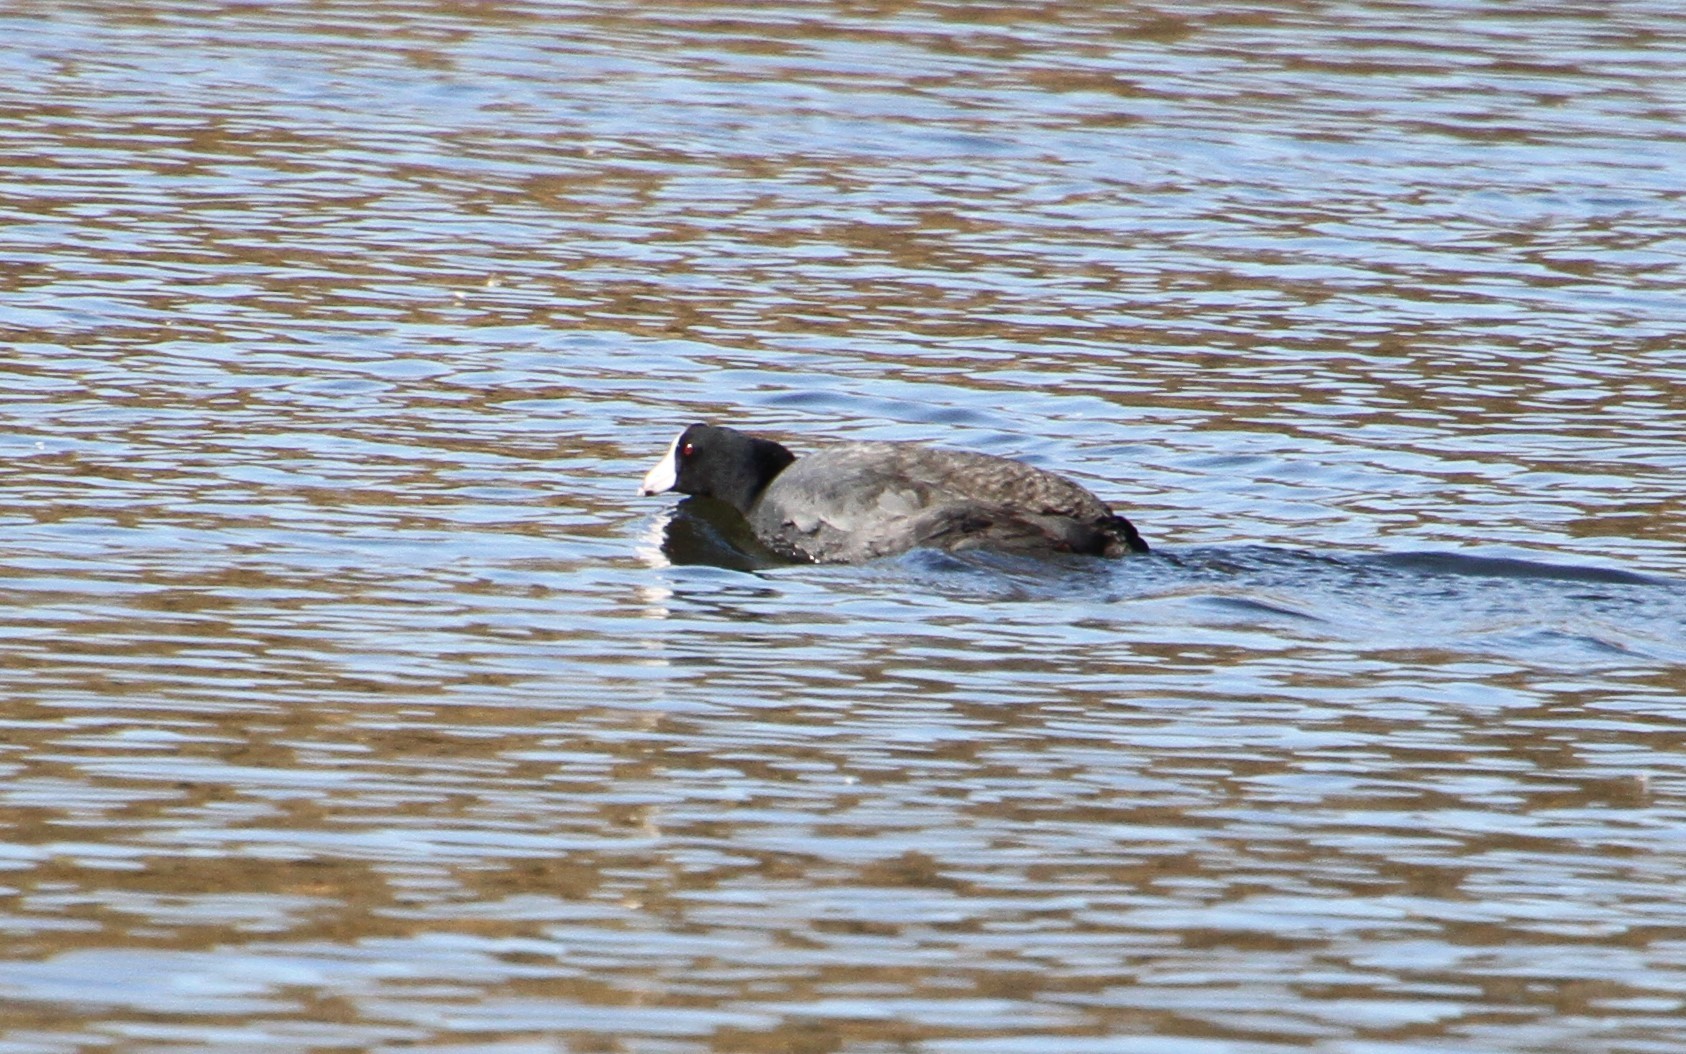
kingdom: Animalia
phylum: Chordata
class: Aves
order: Gruiformes
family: Rallidae
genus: Fulica
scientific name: Fulica americana
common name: American coot
